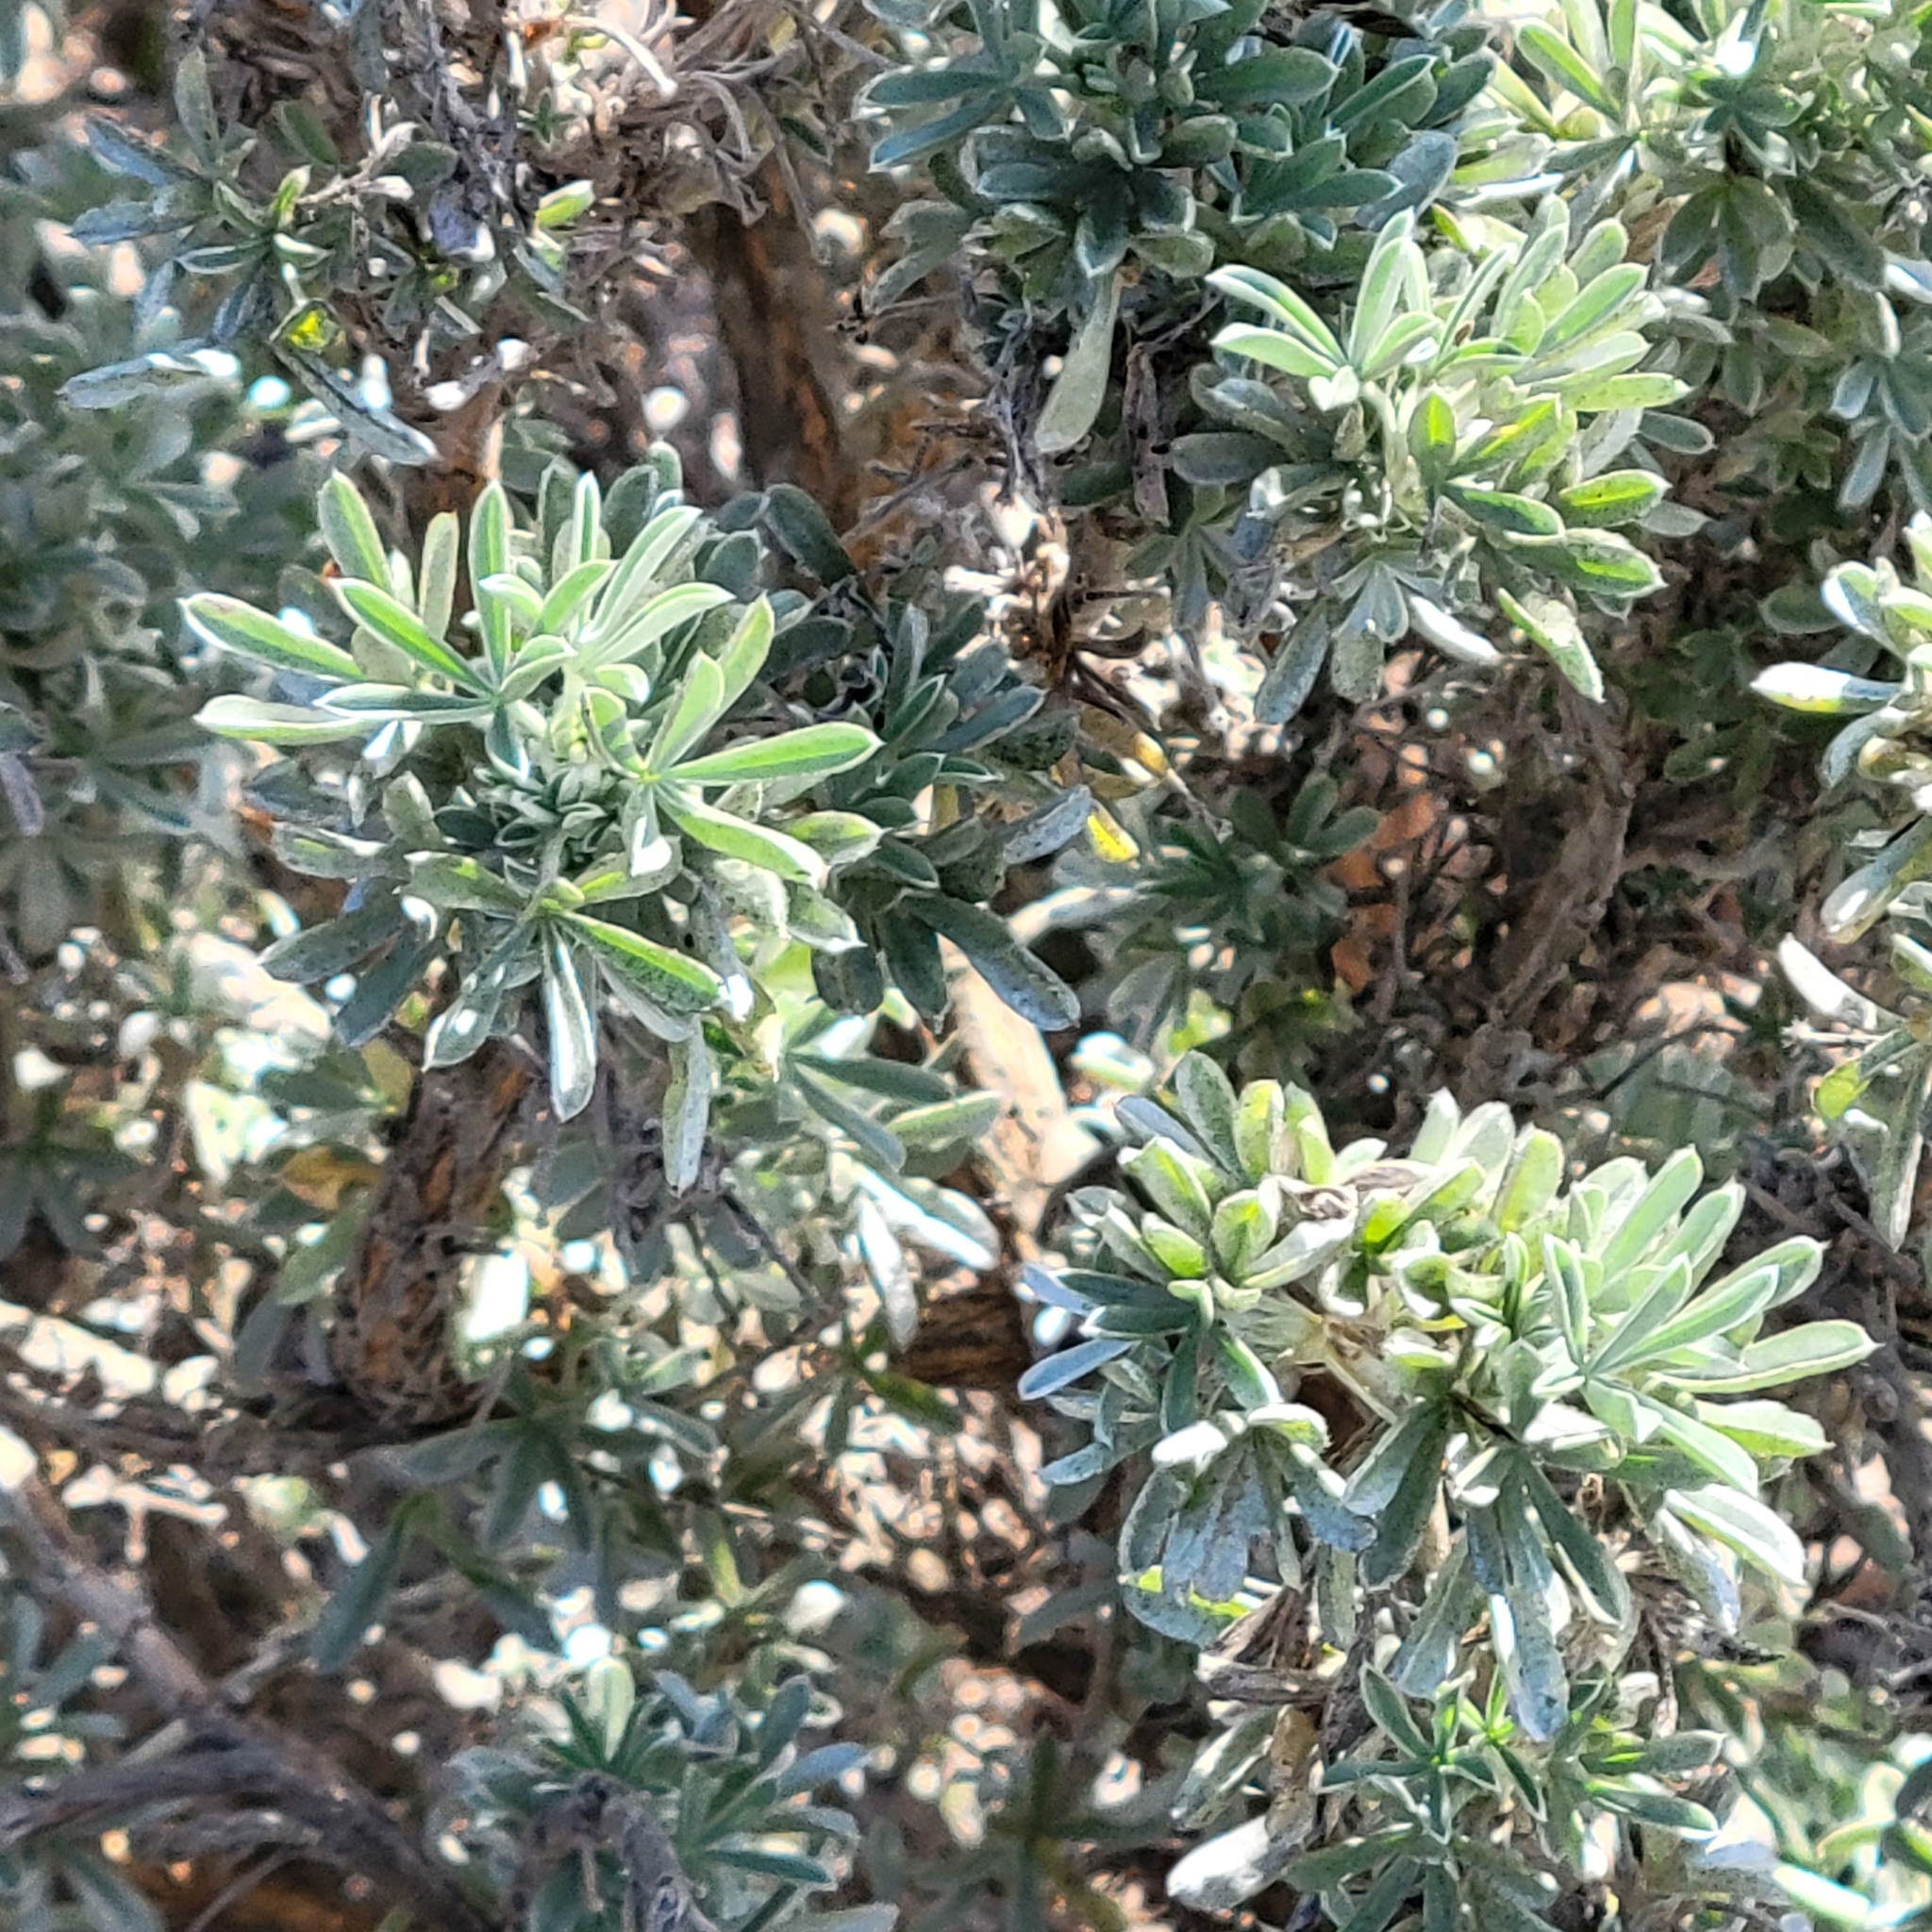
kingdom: Plantae
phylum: Tracheophyta
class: Magnoliopsida
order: Fabales
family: Fabaceae
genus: Lupinus
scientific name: Lupinus chamissonis
